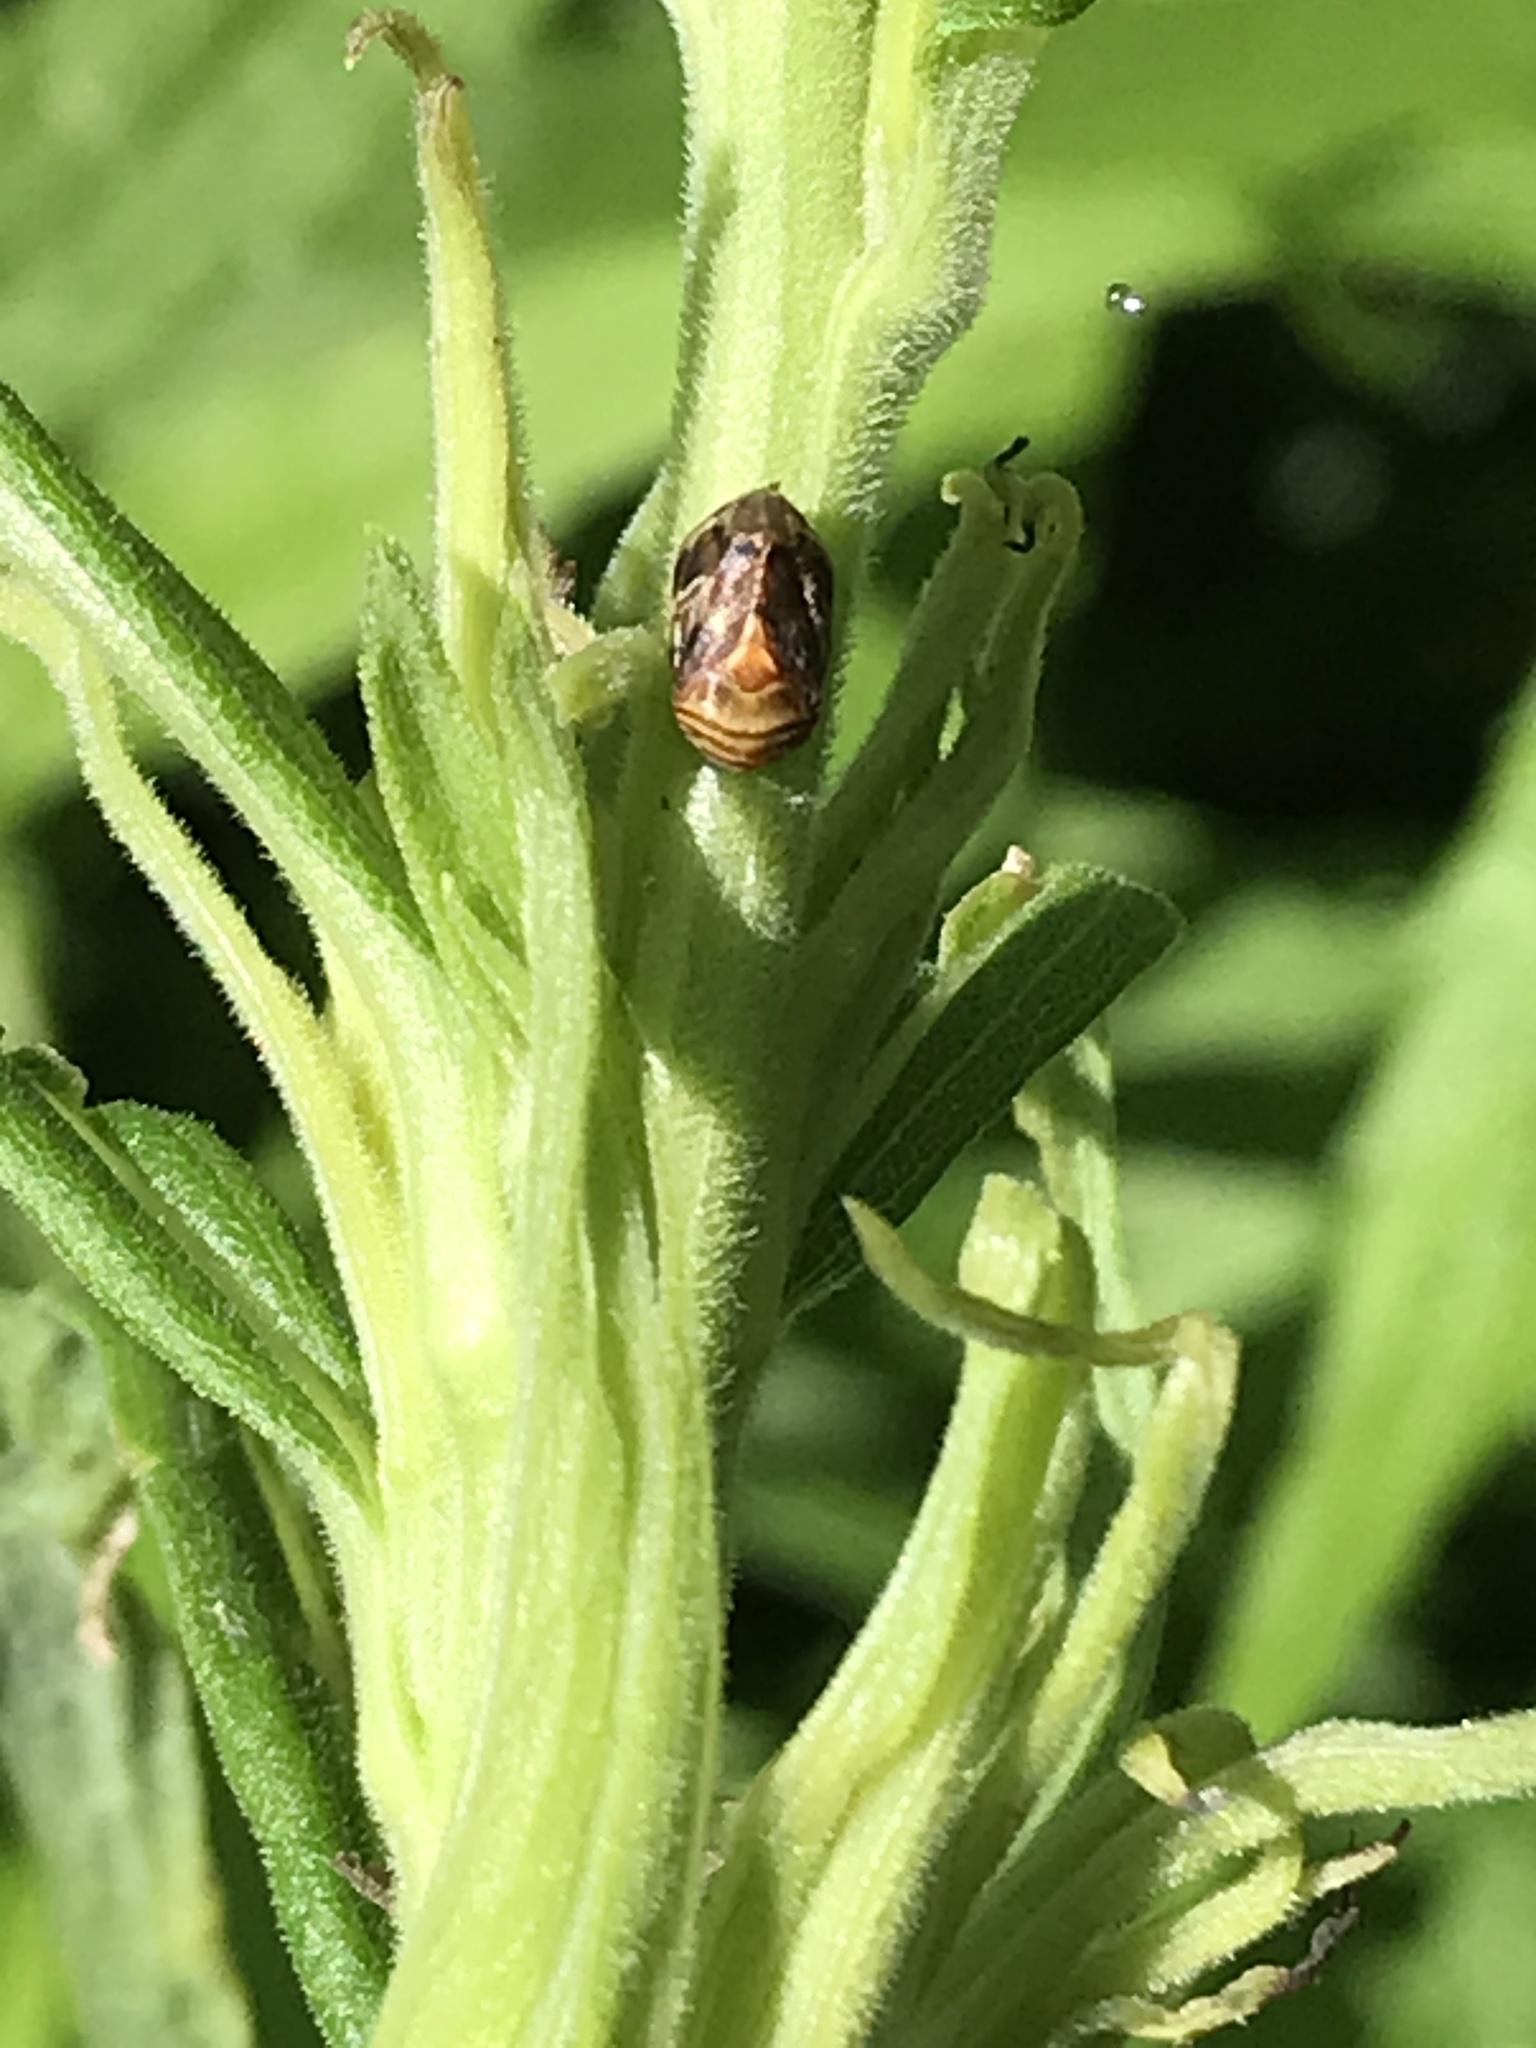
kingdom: Animalia
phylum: Arthropoda
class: Insecta
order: Hemiptera
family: Clastopteridae
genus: Clastoptera
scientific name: Clastoptera obtusa
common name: Alder spittlebug
